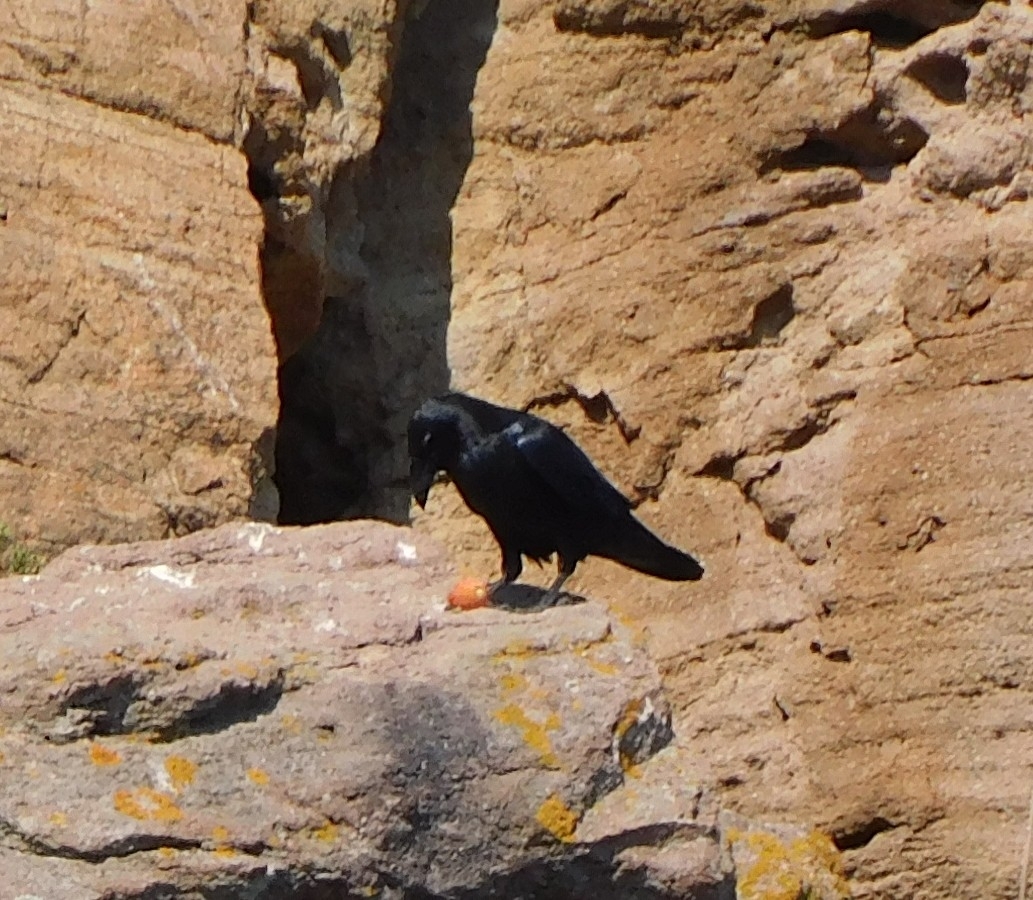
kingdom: Animalia
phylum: Chordata
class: Aves
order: Passeriformes
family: Corvidae
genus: Corvus
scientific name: Corvus corax
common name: Common raven
